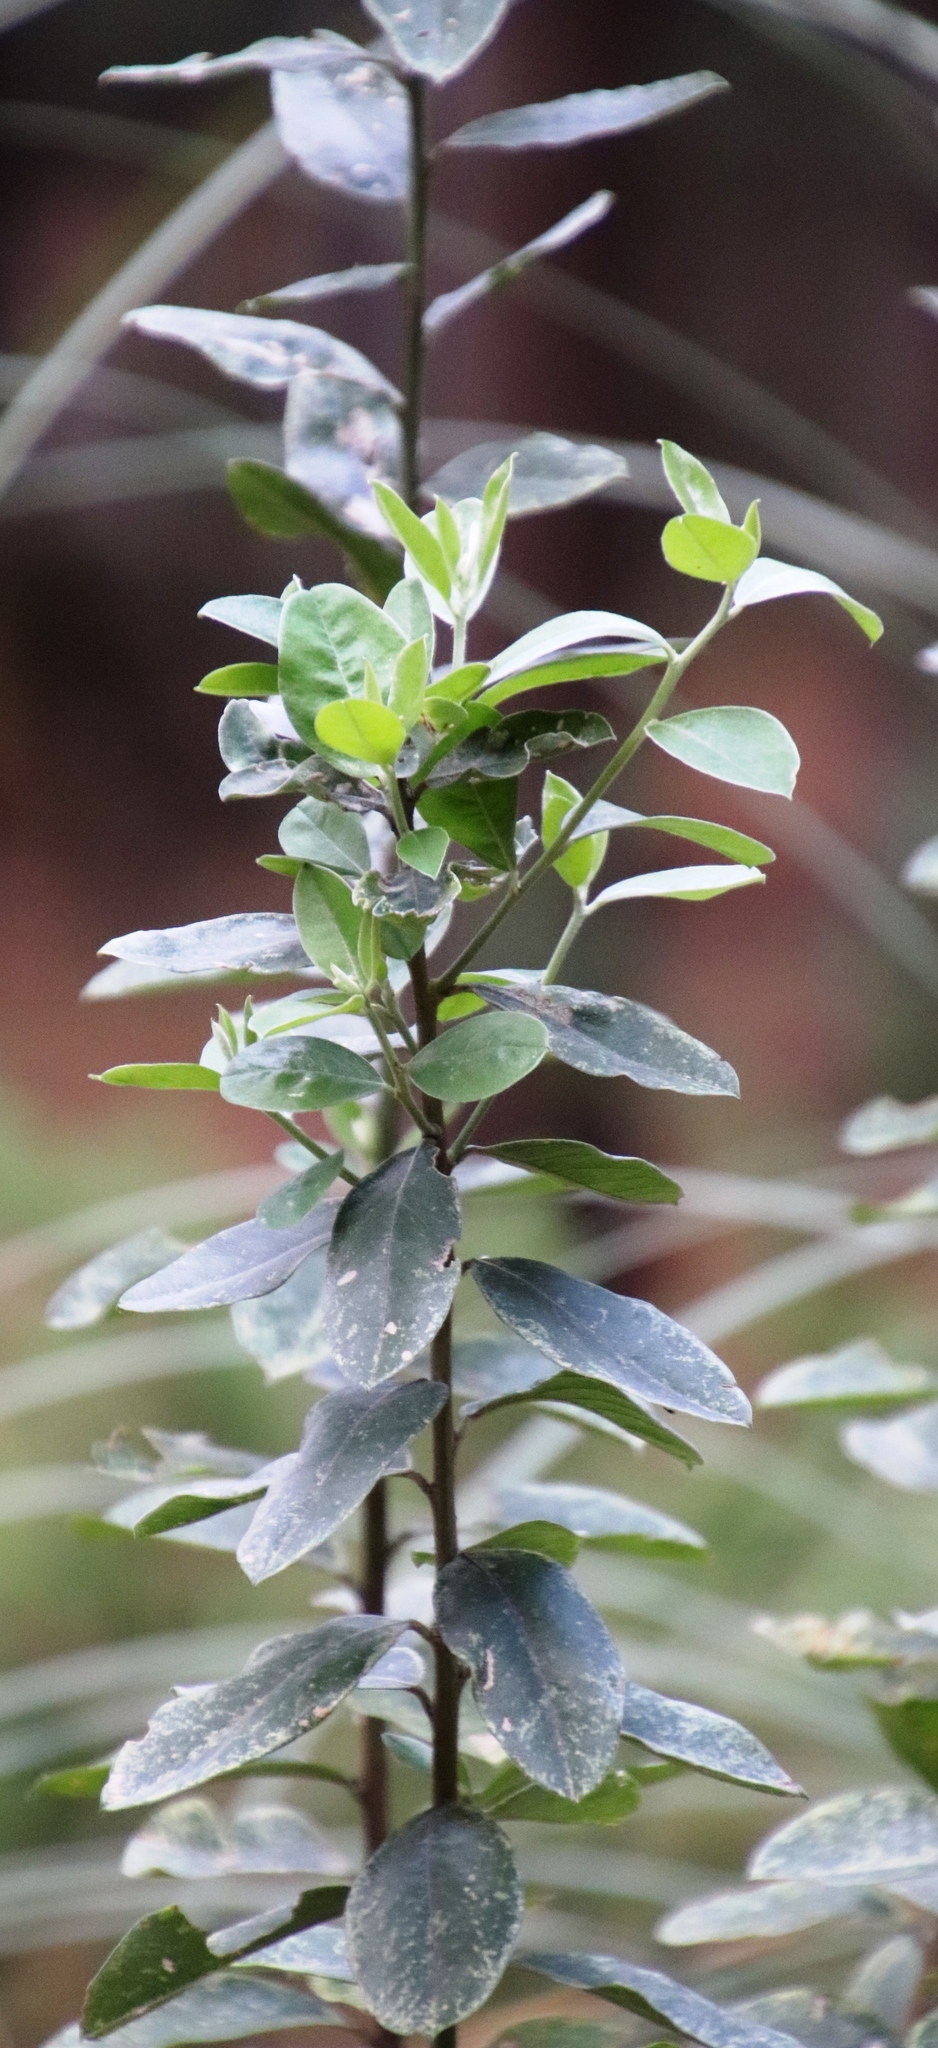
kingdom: Plantae
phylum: Tracheophyta
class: Magnoliopsida
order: Fabales
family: Fabaceae
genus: Podalyria
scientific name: Podalyria calyptrata
